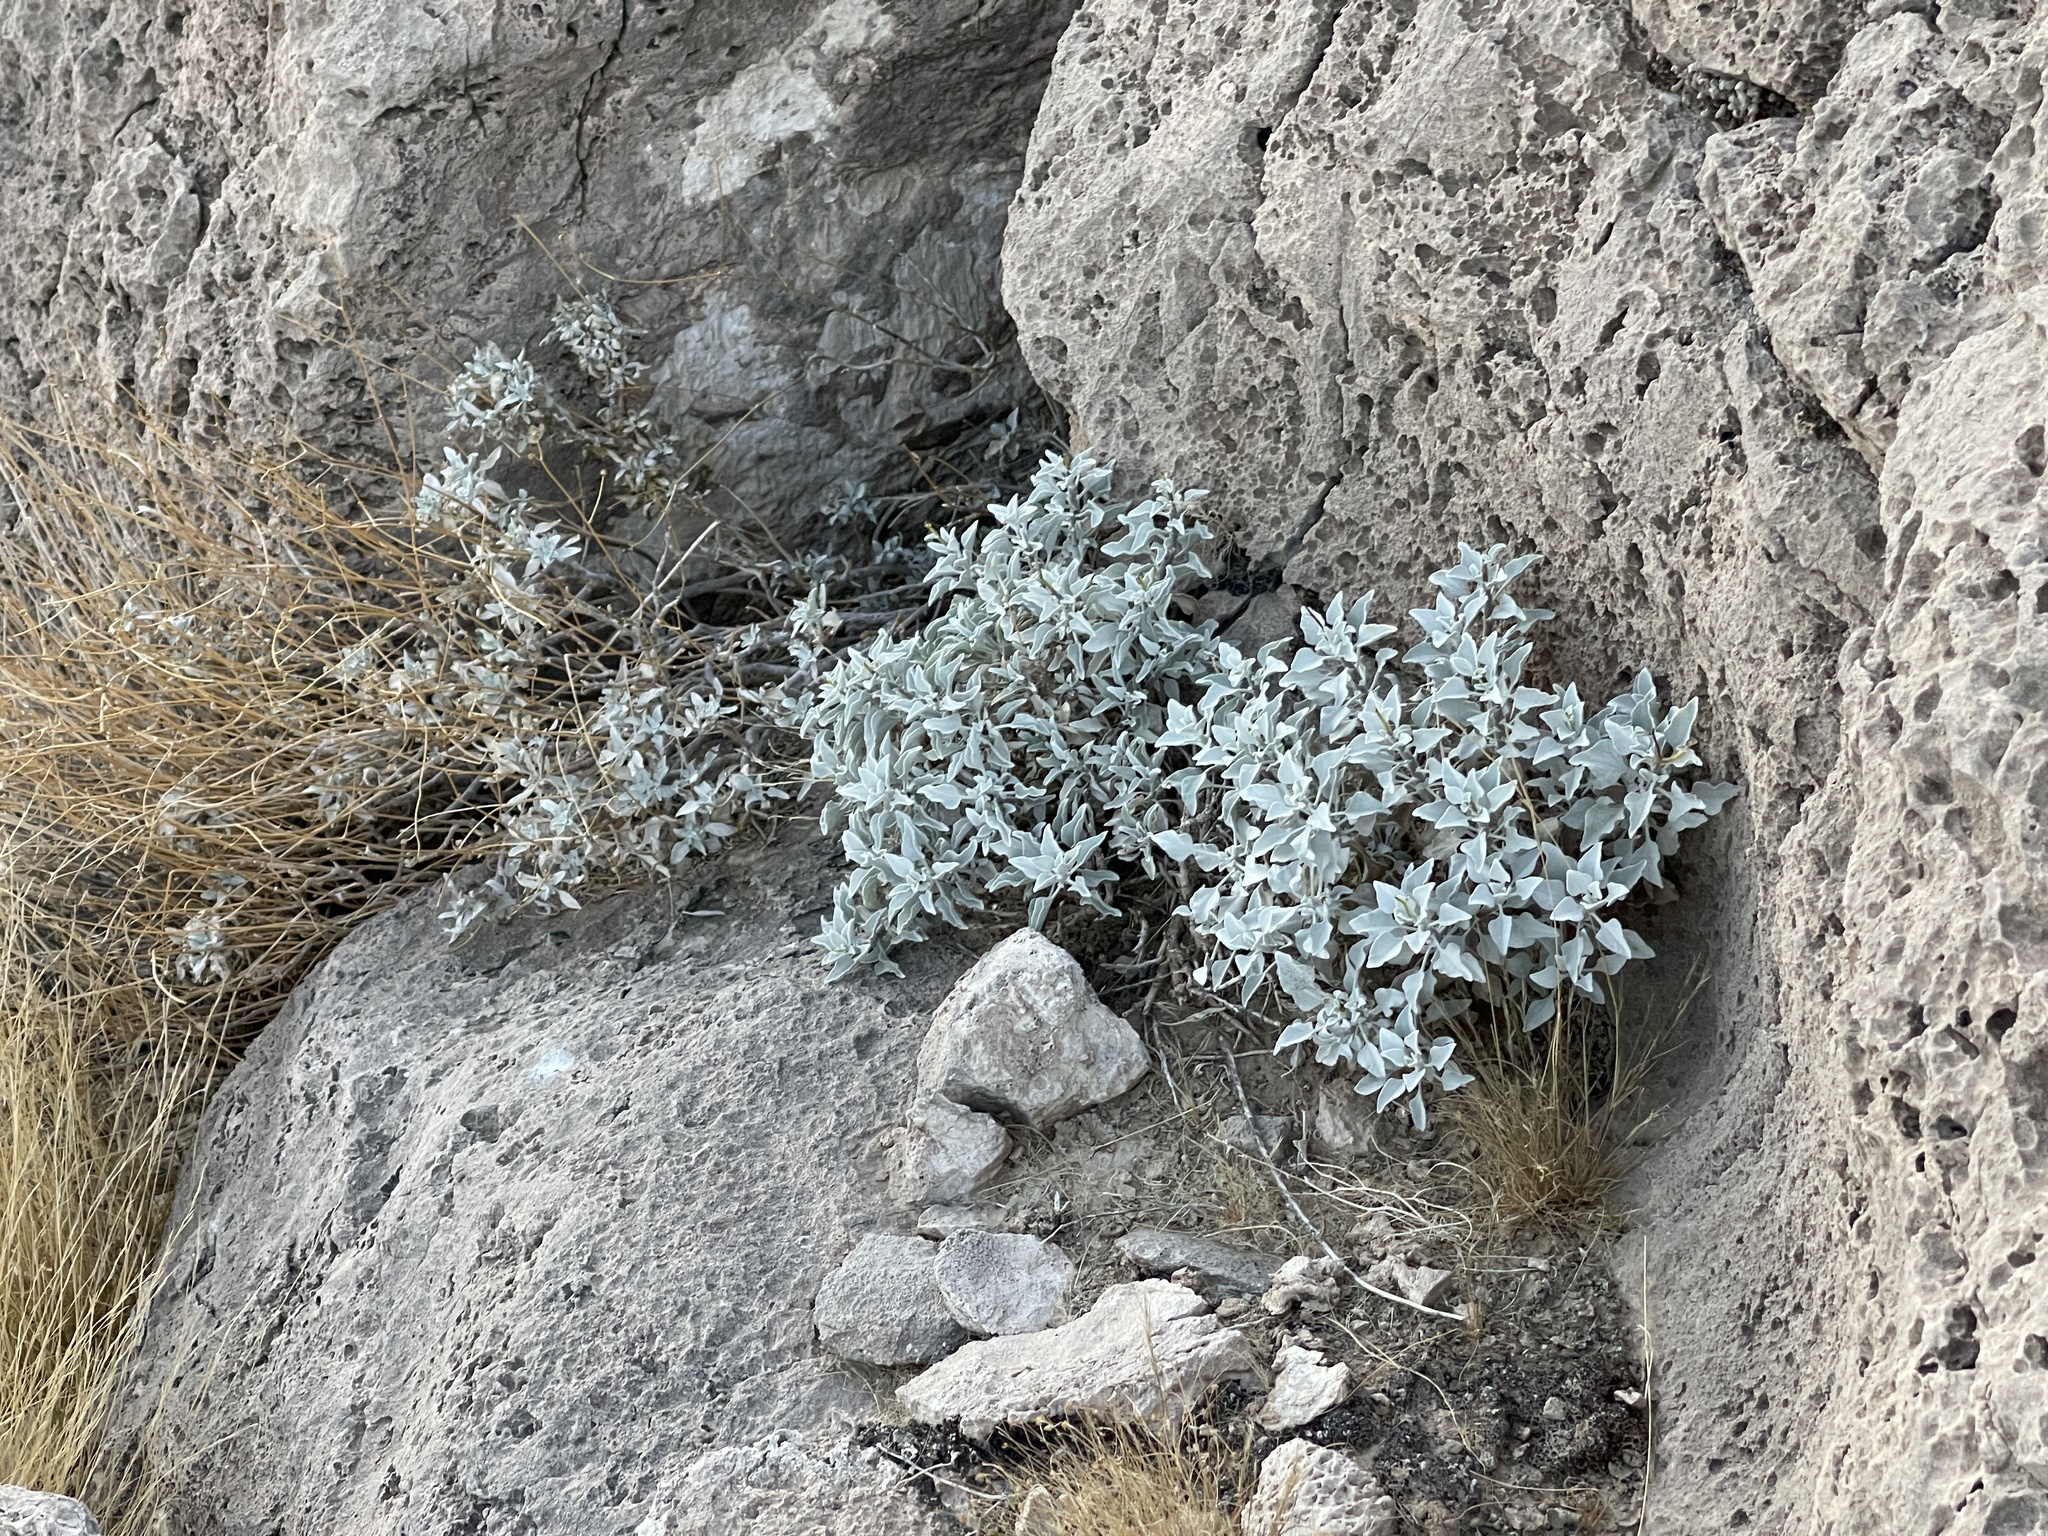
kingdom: Plantae
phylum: Tracheophyta
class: Magnoliopsida
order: Asterales
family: Asteraceae
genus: Encelia
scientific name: Encelia farinosa
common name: Brittlebush
